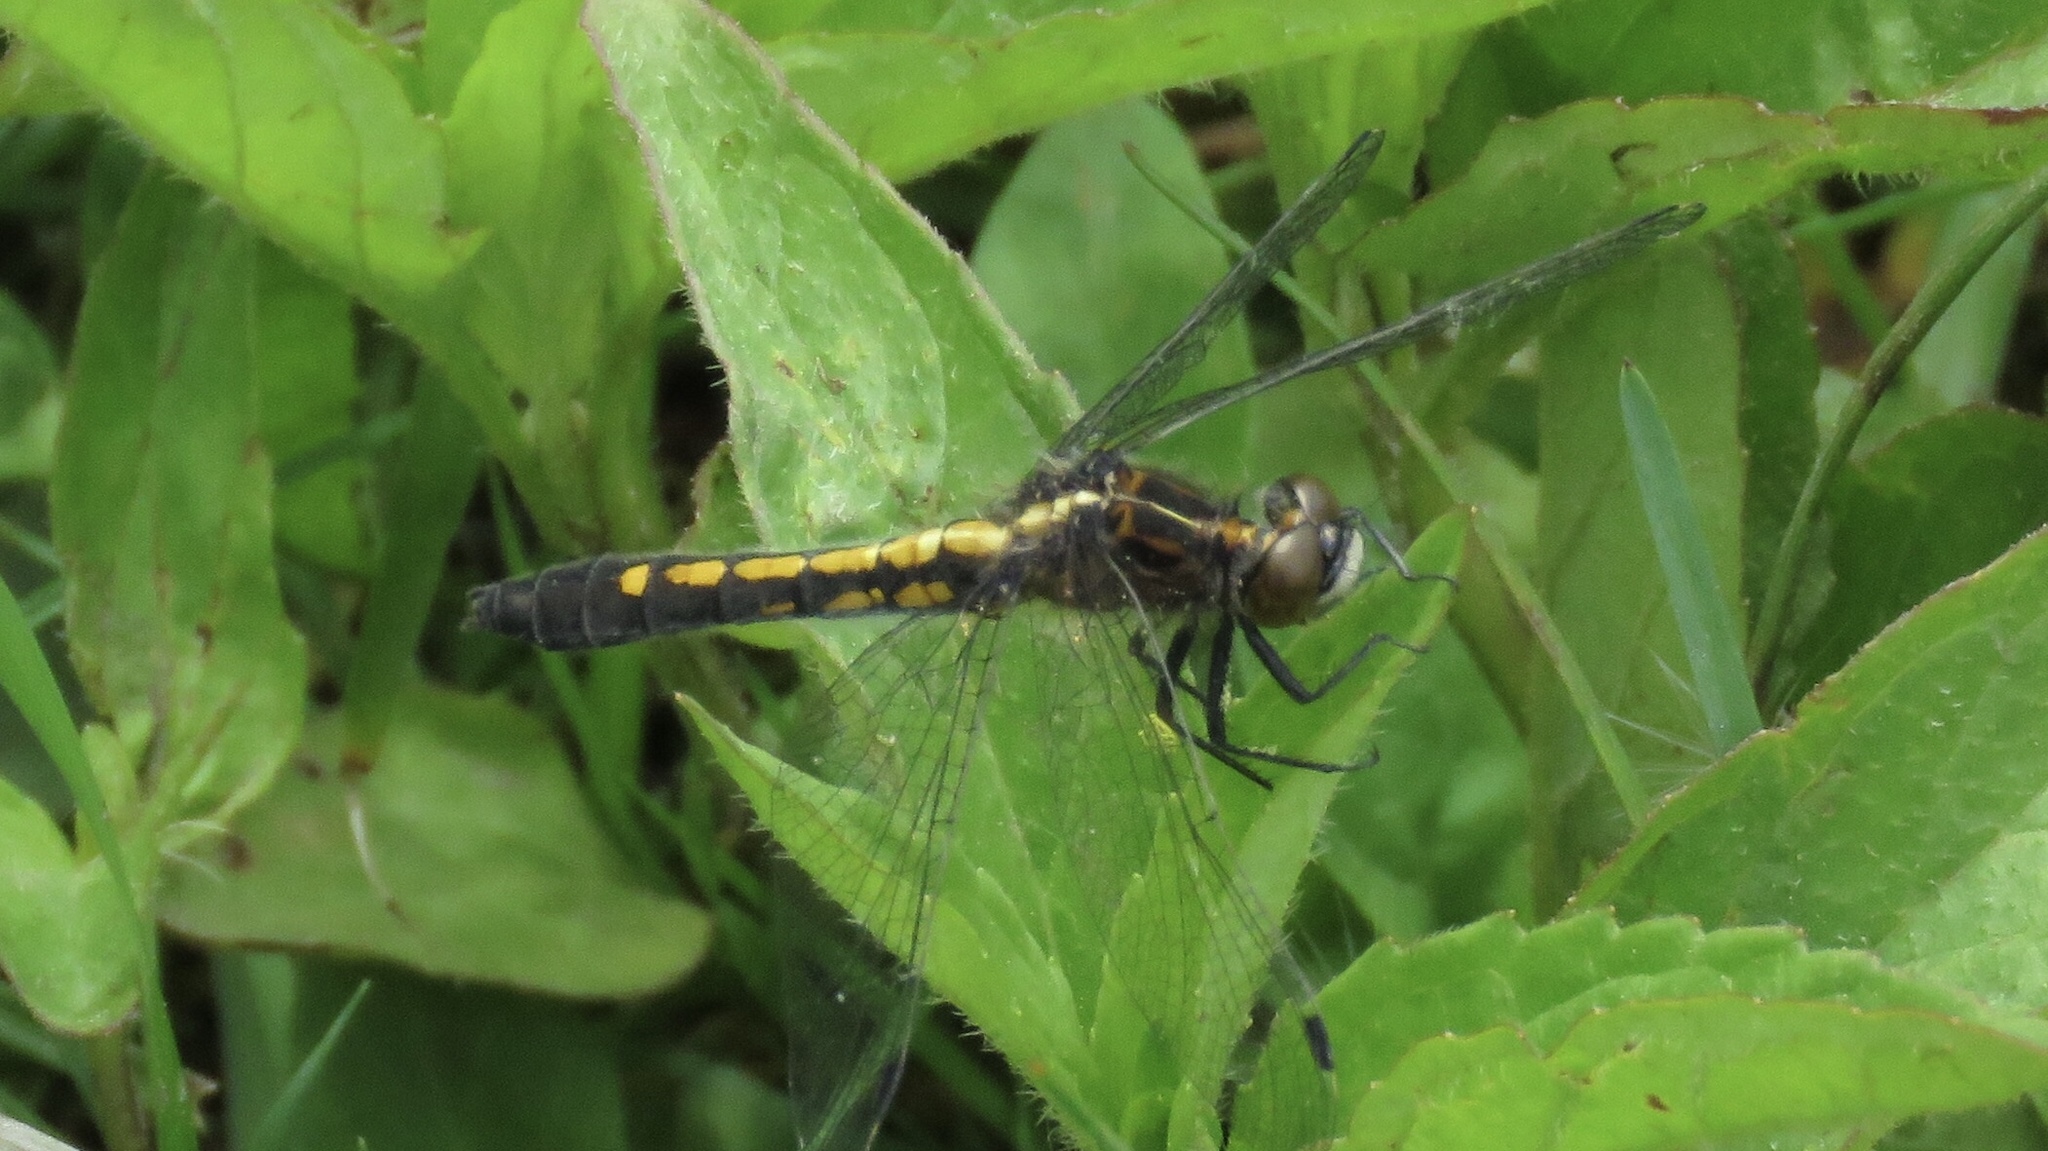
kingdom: Animalia
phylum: Arthropoda
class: Insecta
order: Odonata
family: Libellulidae
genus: Leucorrhinia
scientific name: Leucorrhinia intacta
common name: Dot-tailed whiteface
